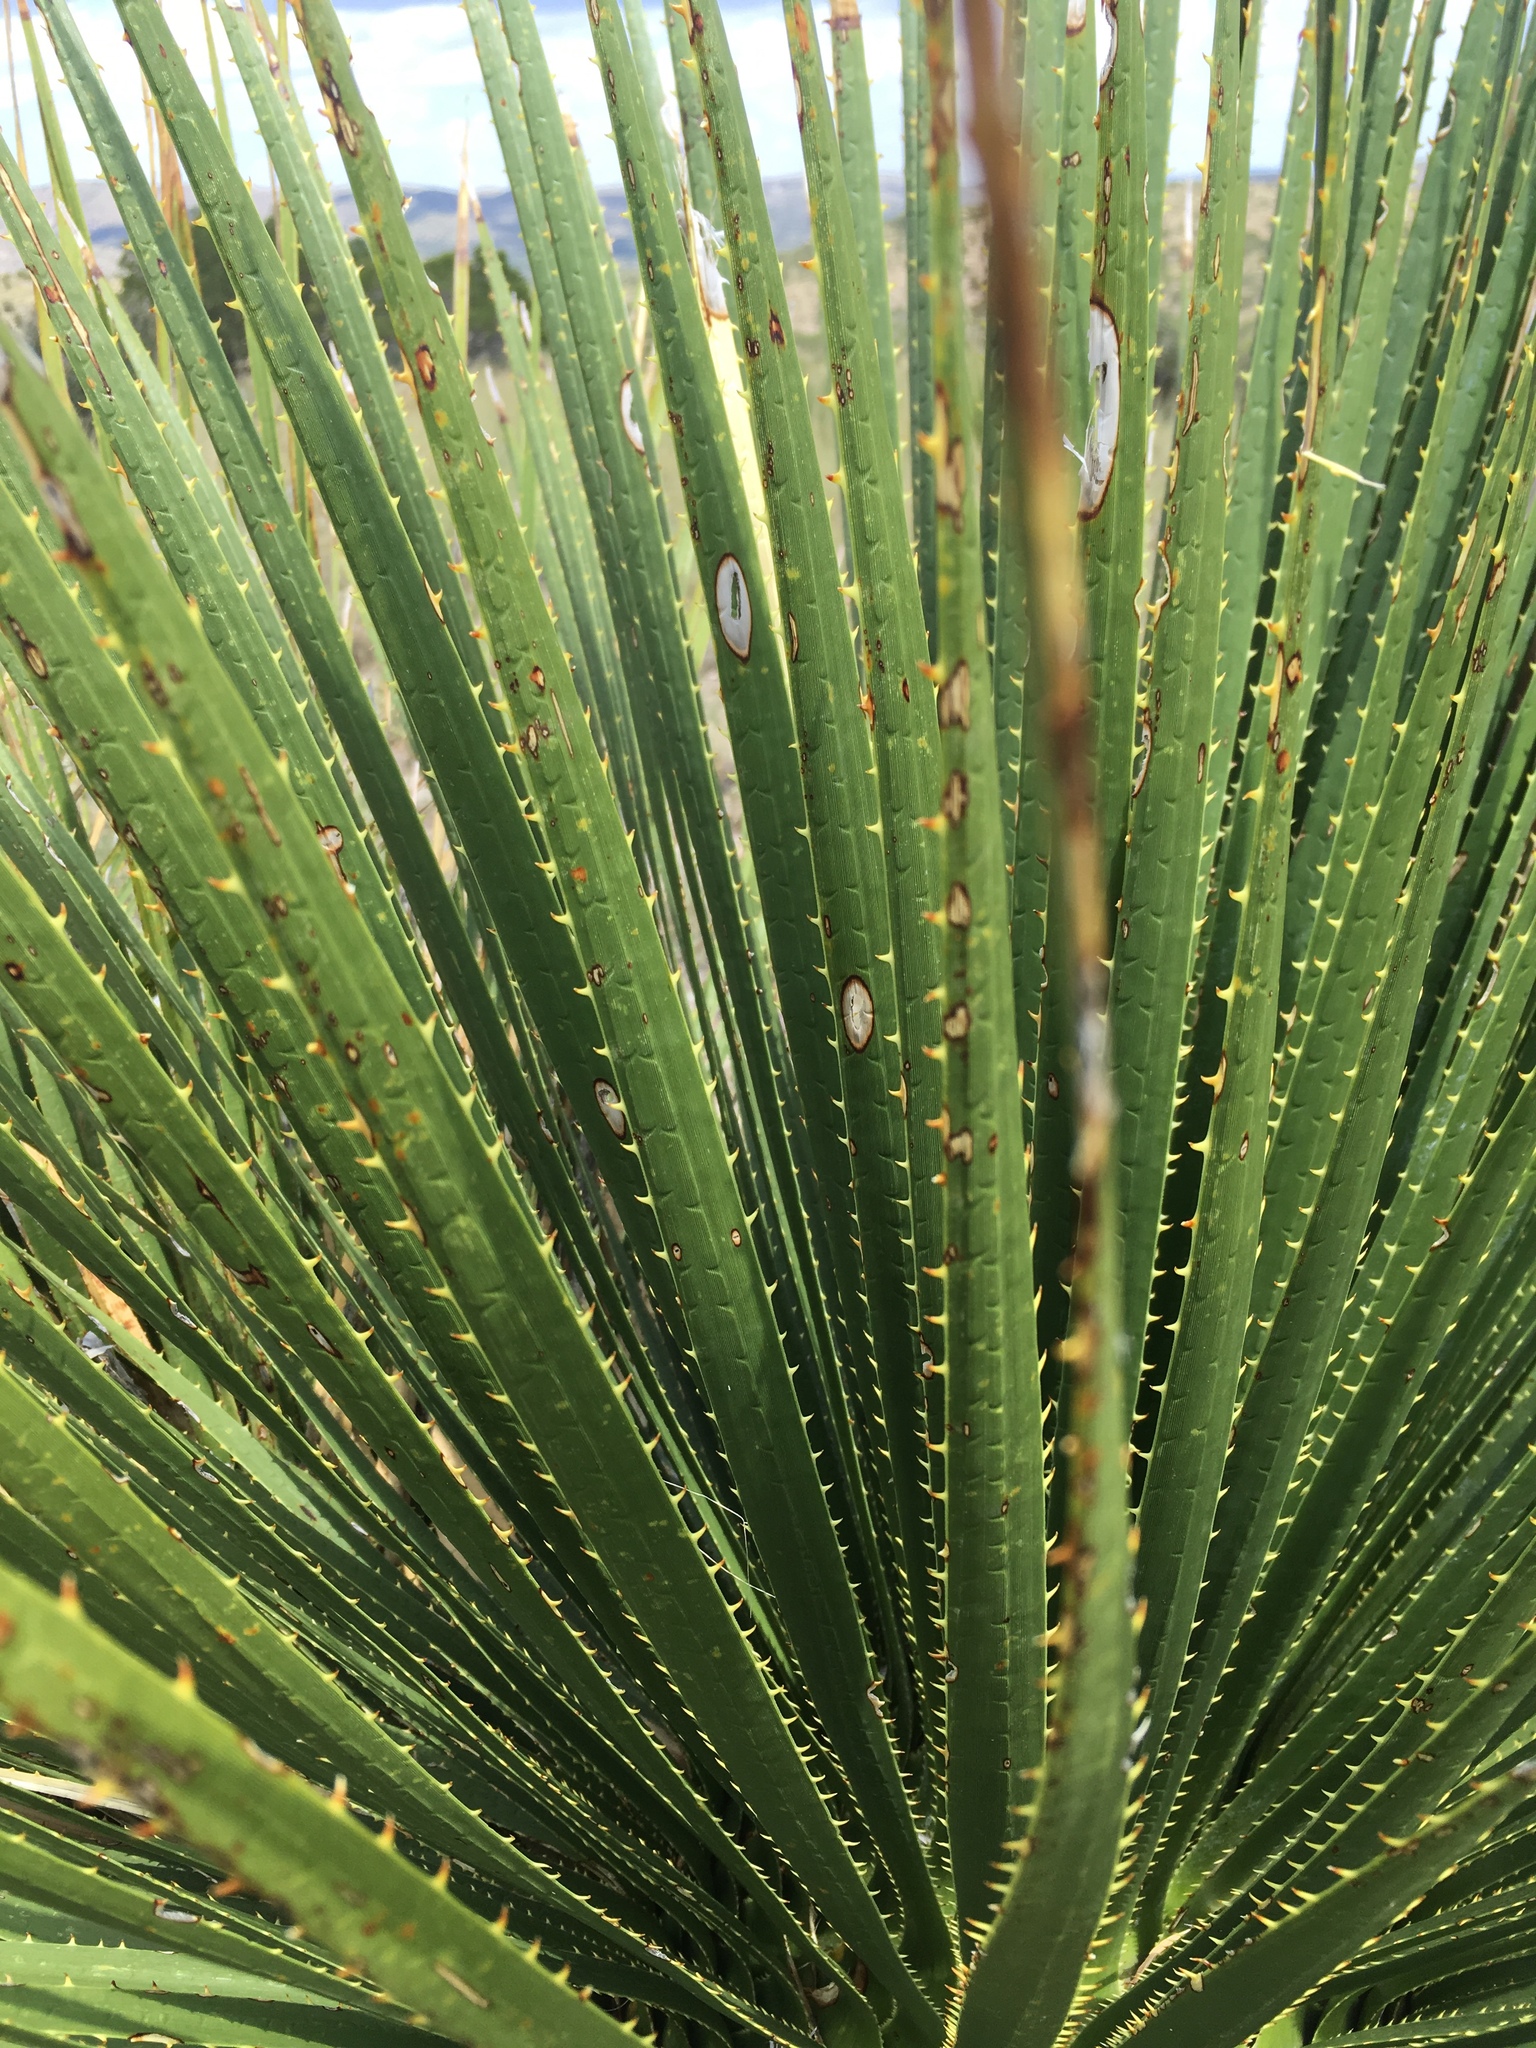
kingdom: Plantae
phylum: Tracheophyta
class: Liliopsida
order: Asparagales
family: Asparagaceae
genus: Dasylirion
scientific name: Dasylirion wheeleri
